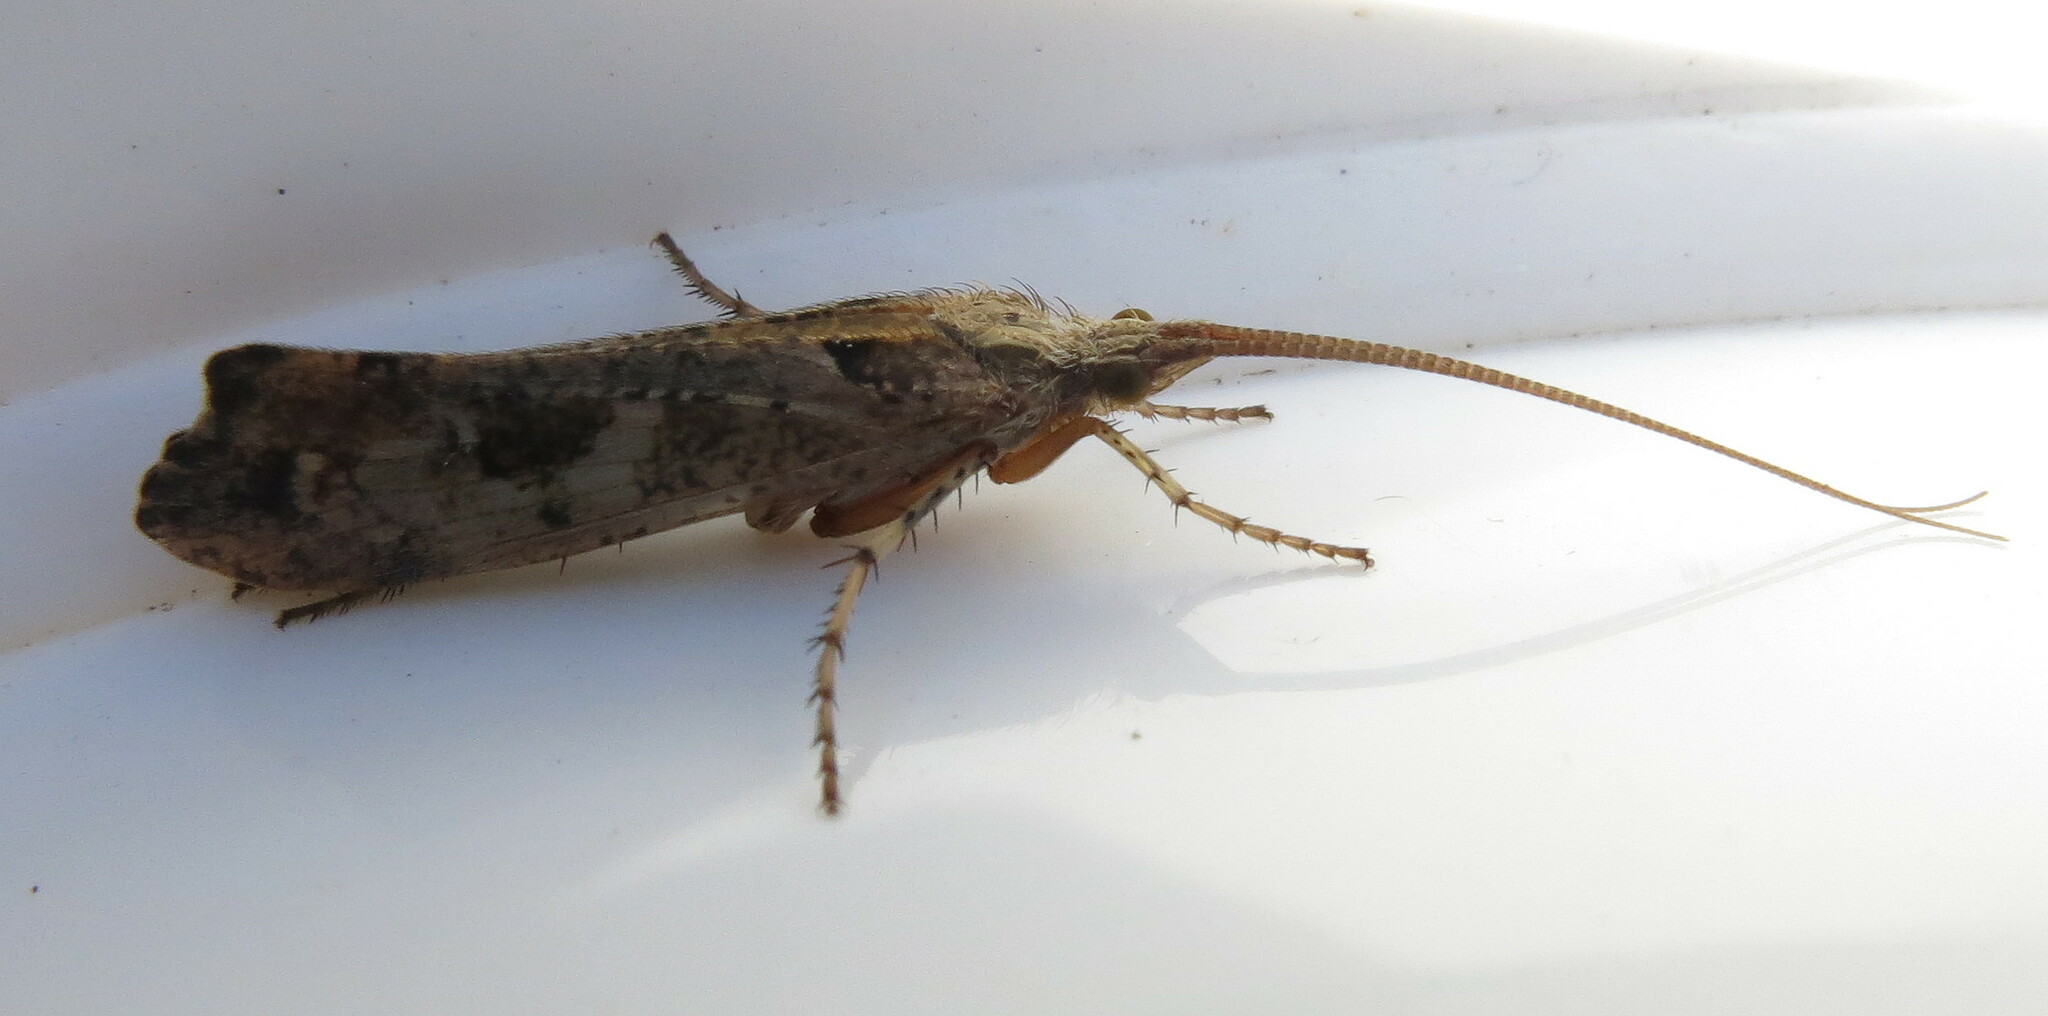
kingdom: Animalia
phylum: Arthropoda
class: Insecta
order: Trichoptera
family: Limnephilidae
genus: Glyphotaelius
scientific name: Glyphotaelius pellucidus
